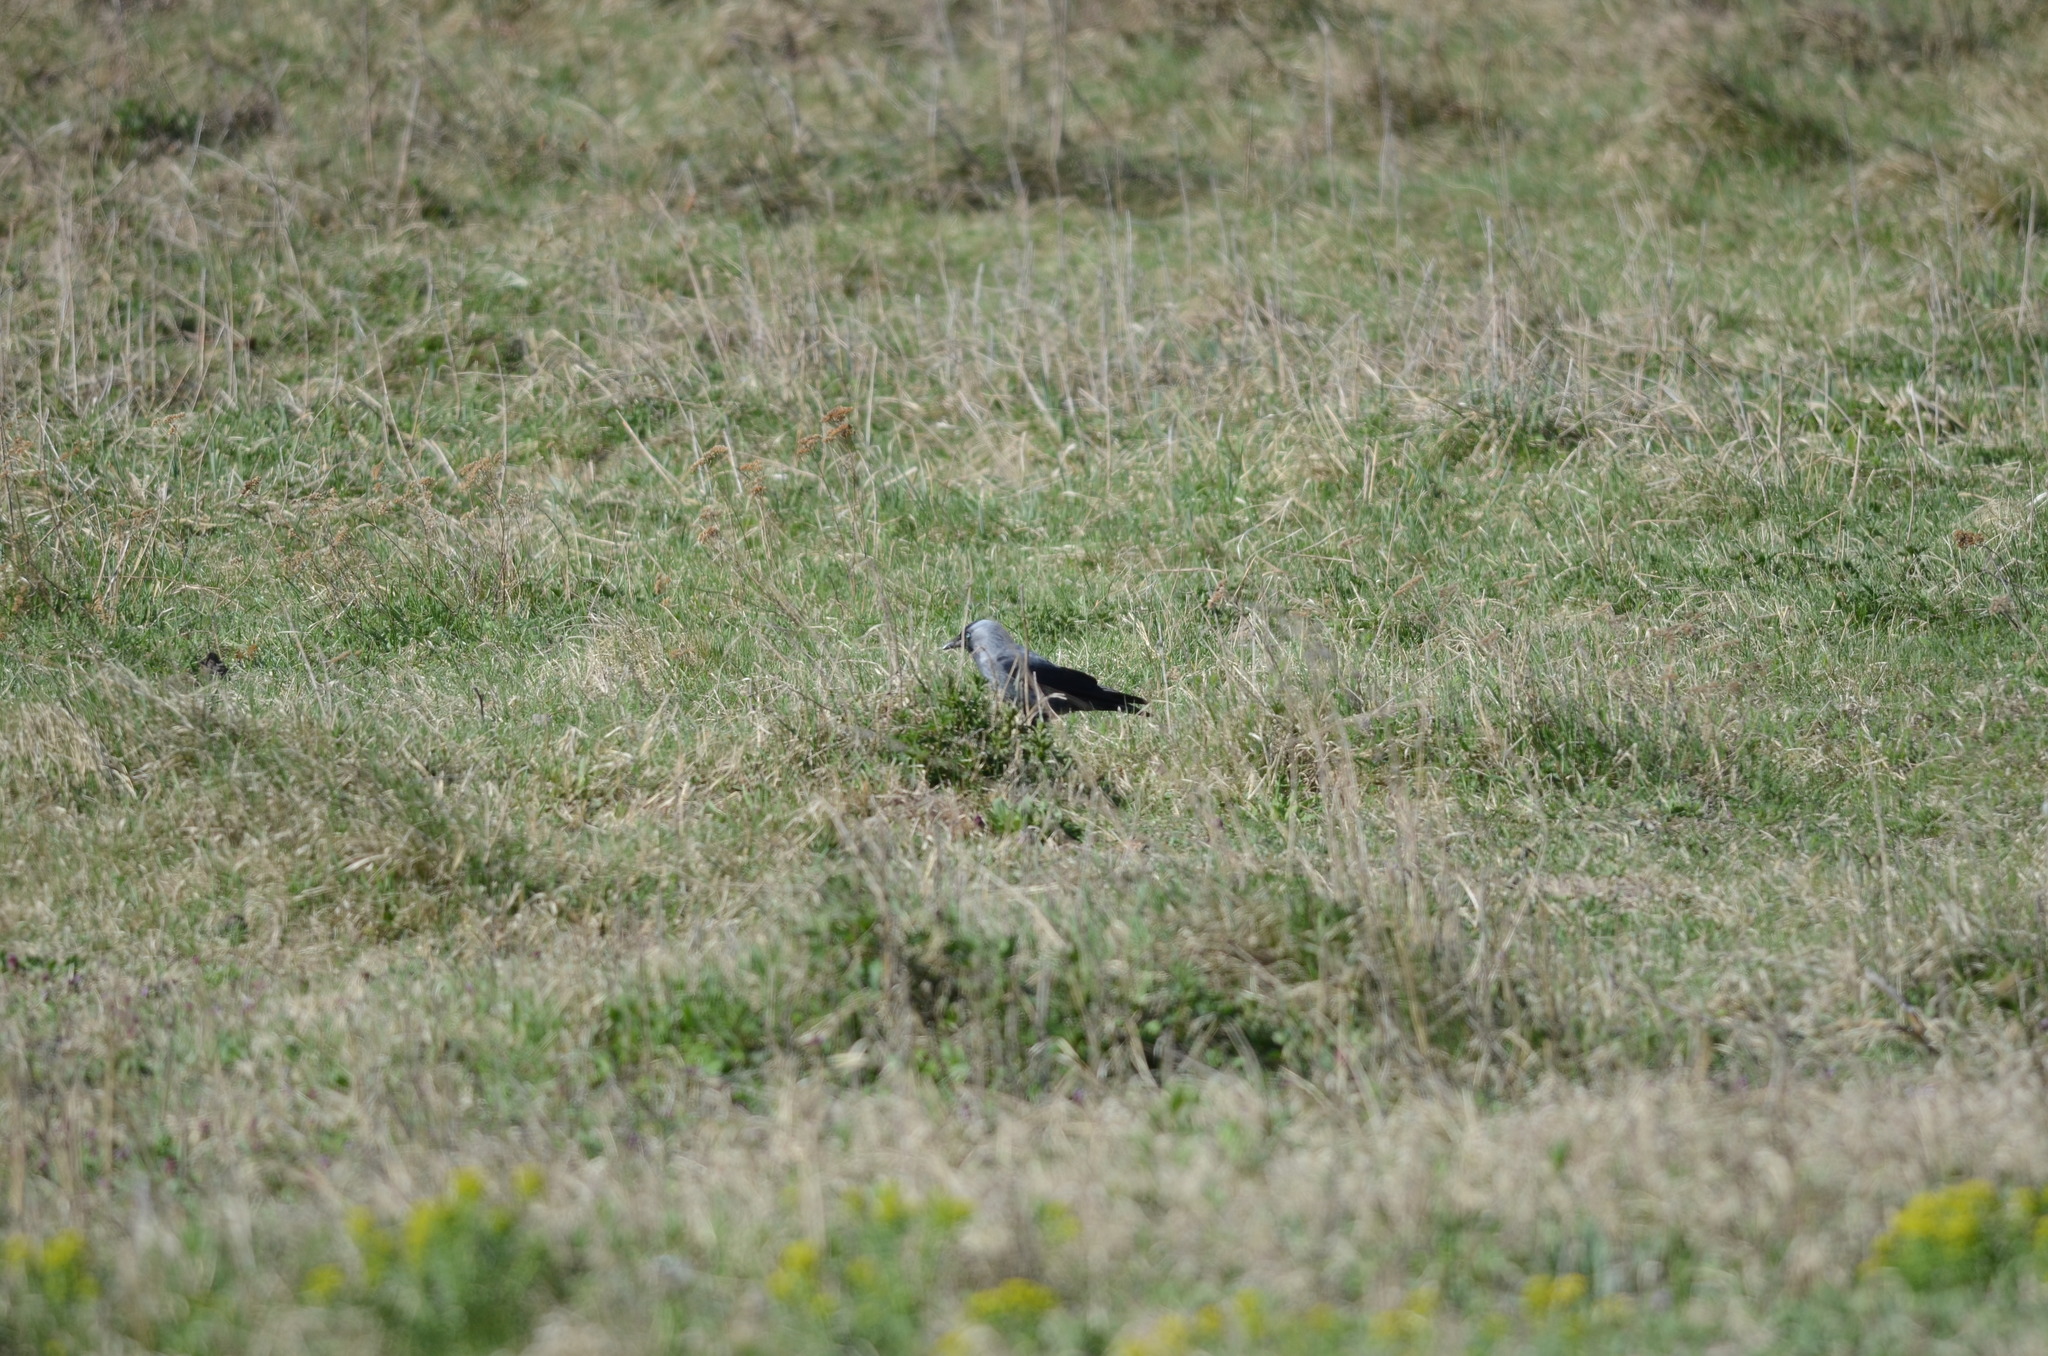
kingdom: Animalia
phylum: Chordata
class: Aves
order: Passeriformes
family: Corvidae
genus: Coloeus
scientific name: Coloeus monedula
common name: Western jackdaw
